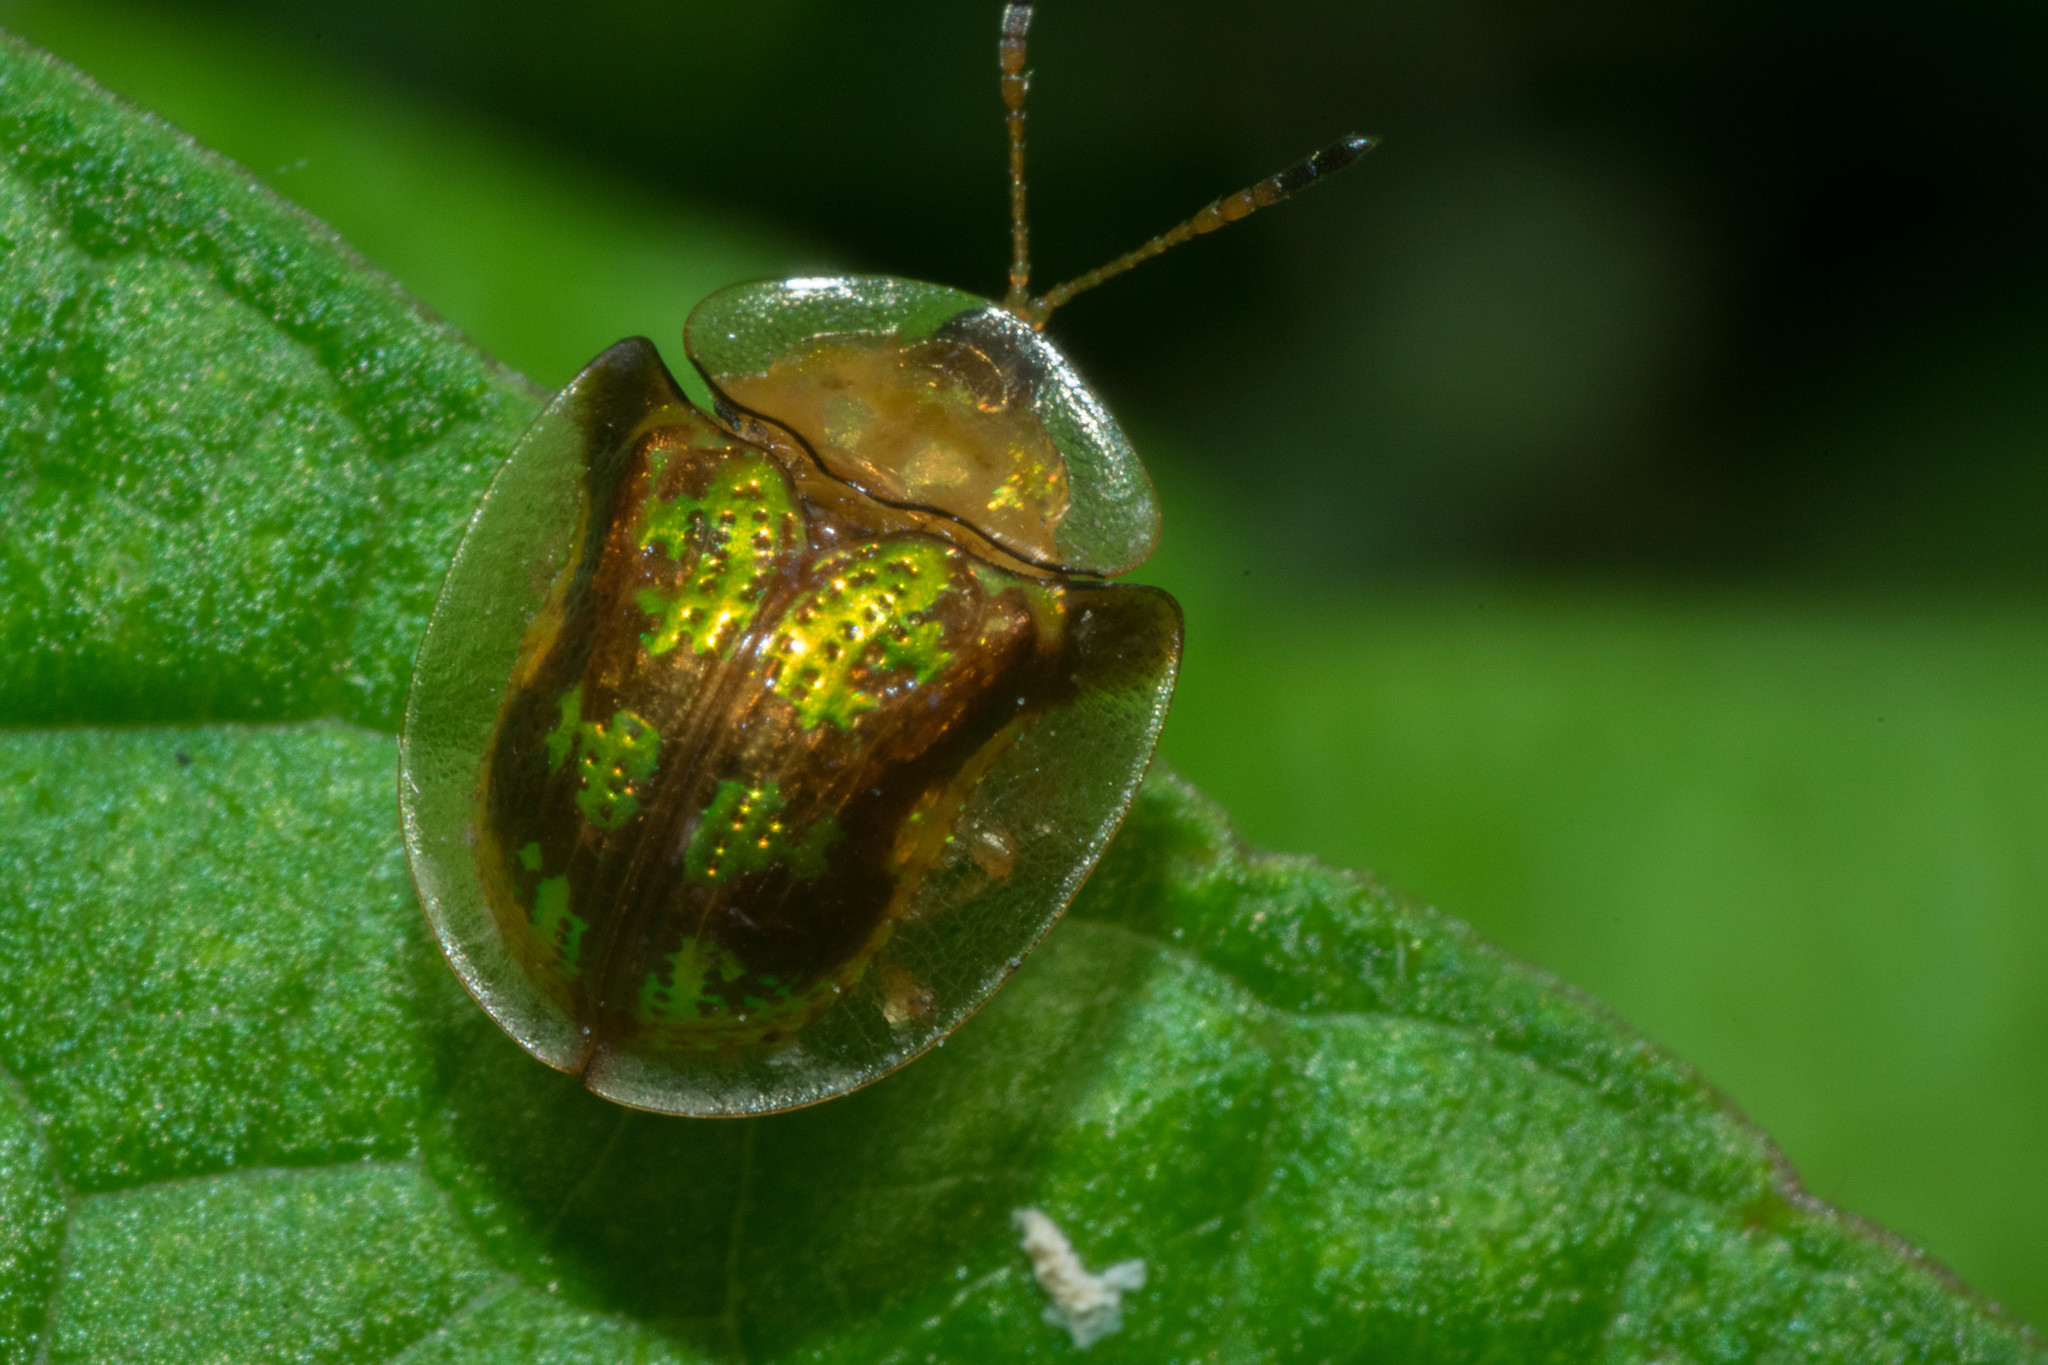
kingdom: Animalia
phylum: Arthropoda
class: Insecta
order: Coleoptera
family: Chrysomelidae
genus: Deloyala
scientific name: Deloyala guttata
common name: Mottled tortoise beetle
